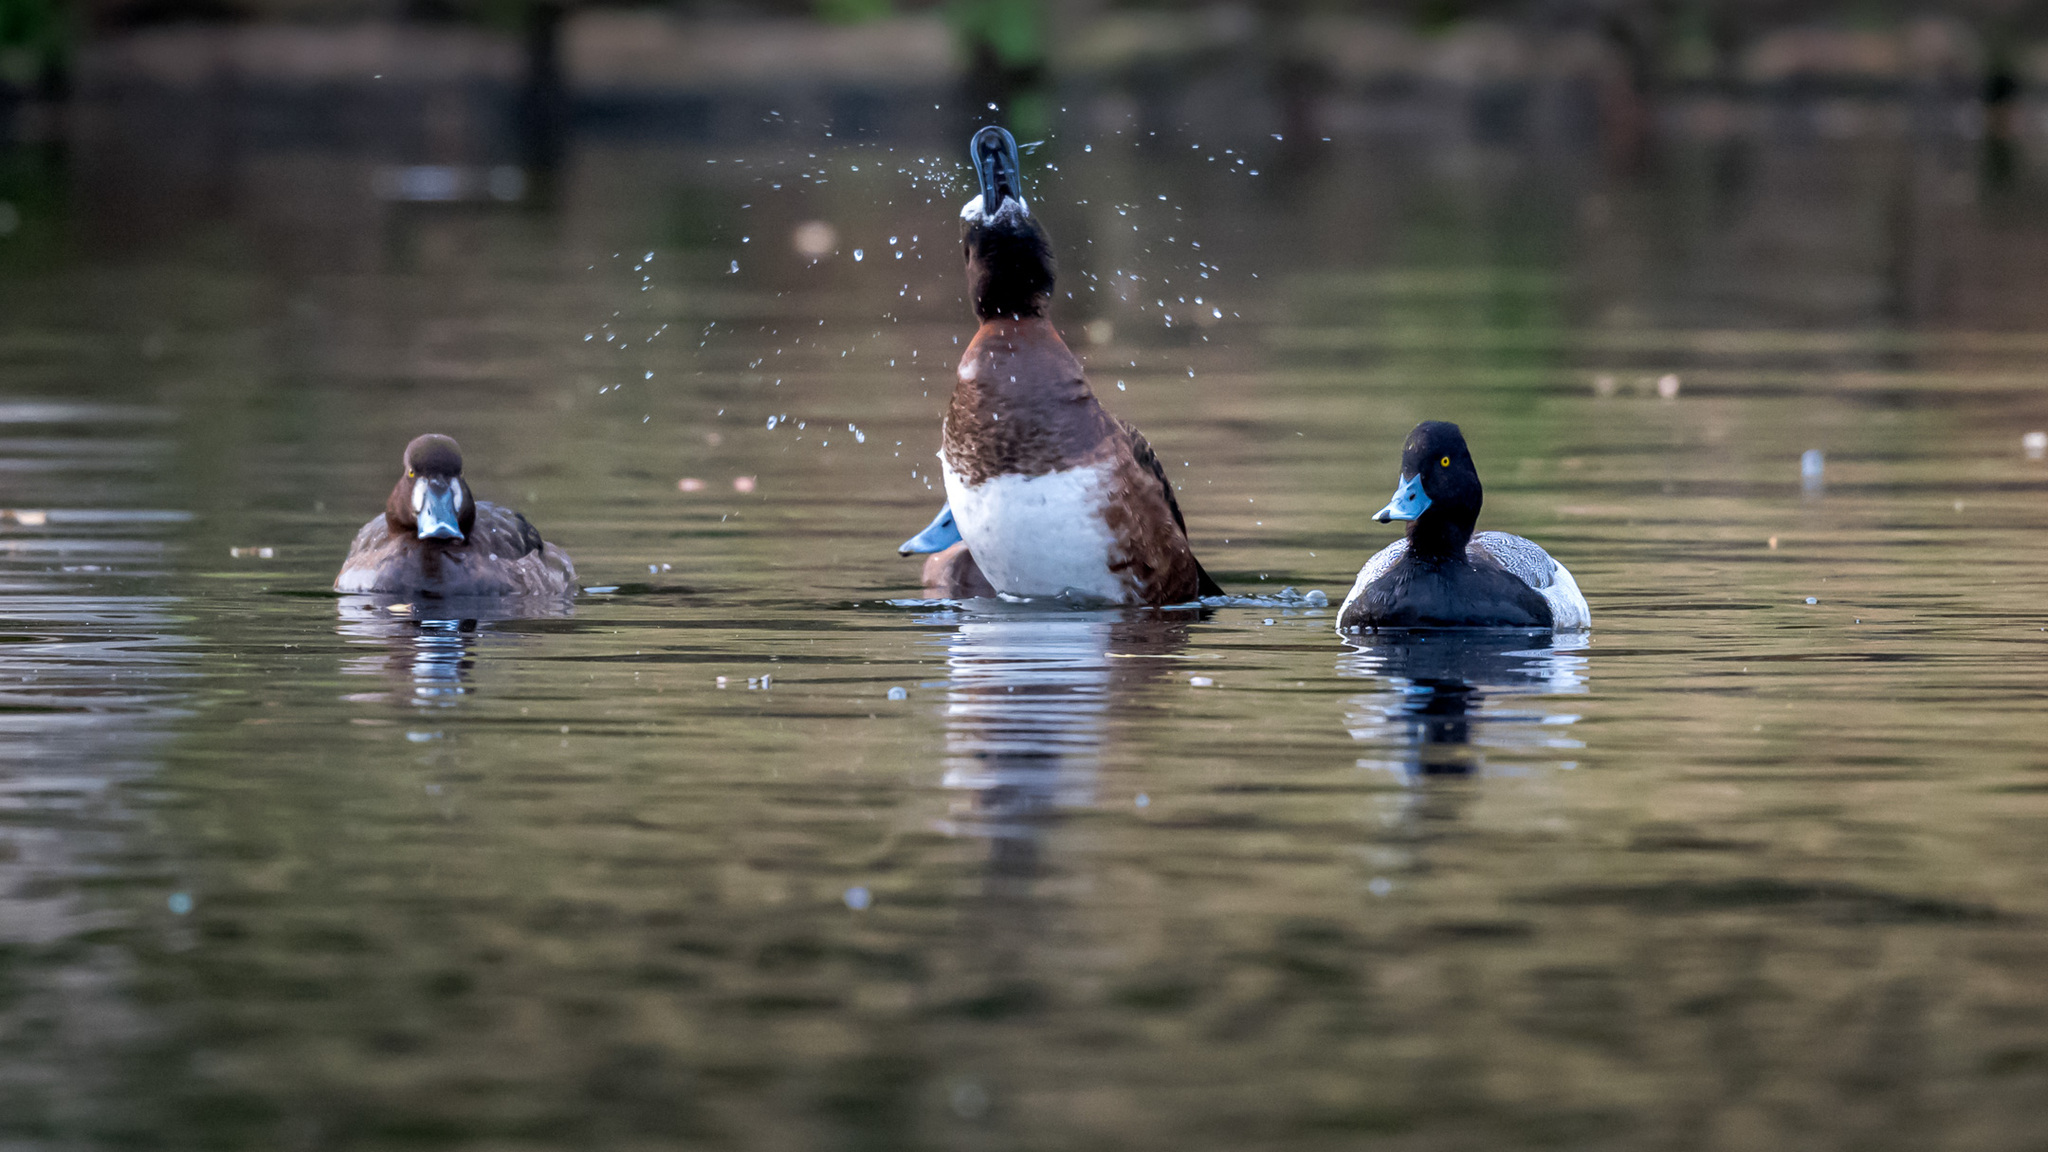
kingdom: Animalia
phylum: Chordata
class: Aves
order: Anseriformes
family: Anatidae
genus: Aythya
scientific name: Aythya collaris
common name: Ring-necked duck
